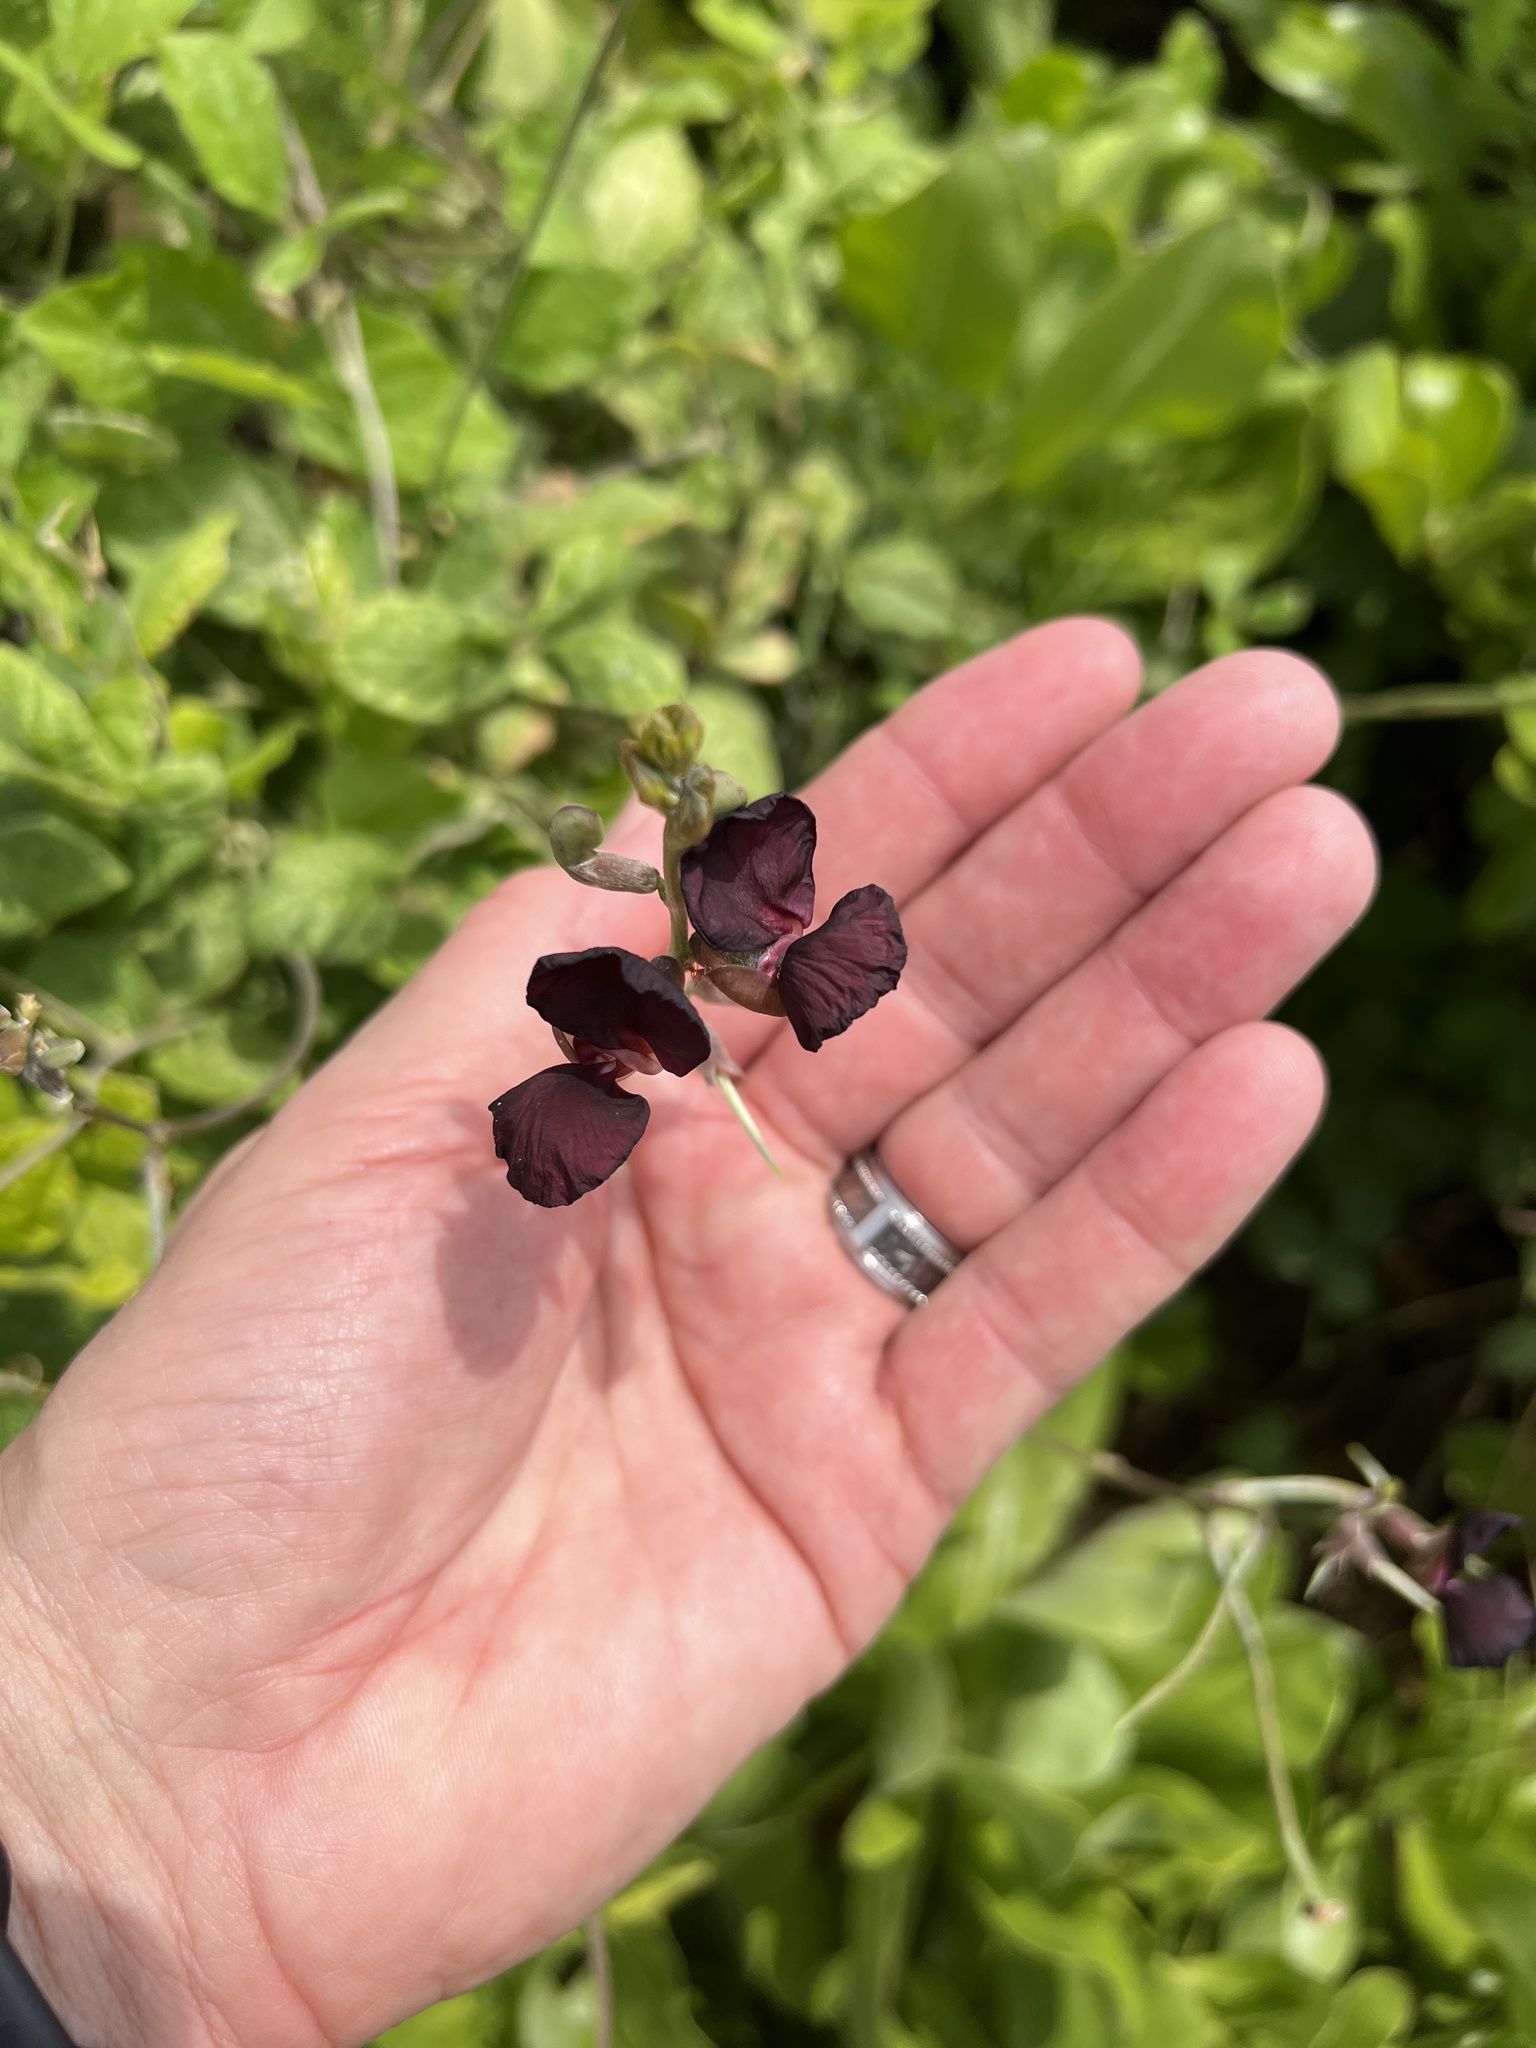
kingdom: Plantae
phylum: Tracheophyta
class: Magnoliopsida
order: Fabales
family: Fabaceae
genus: Macroptilium
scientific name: Macroptilium atropurpureum
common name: Purple bushbean
